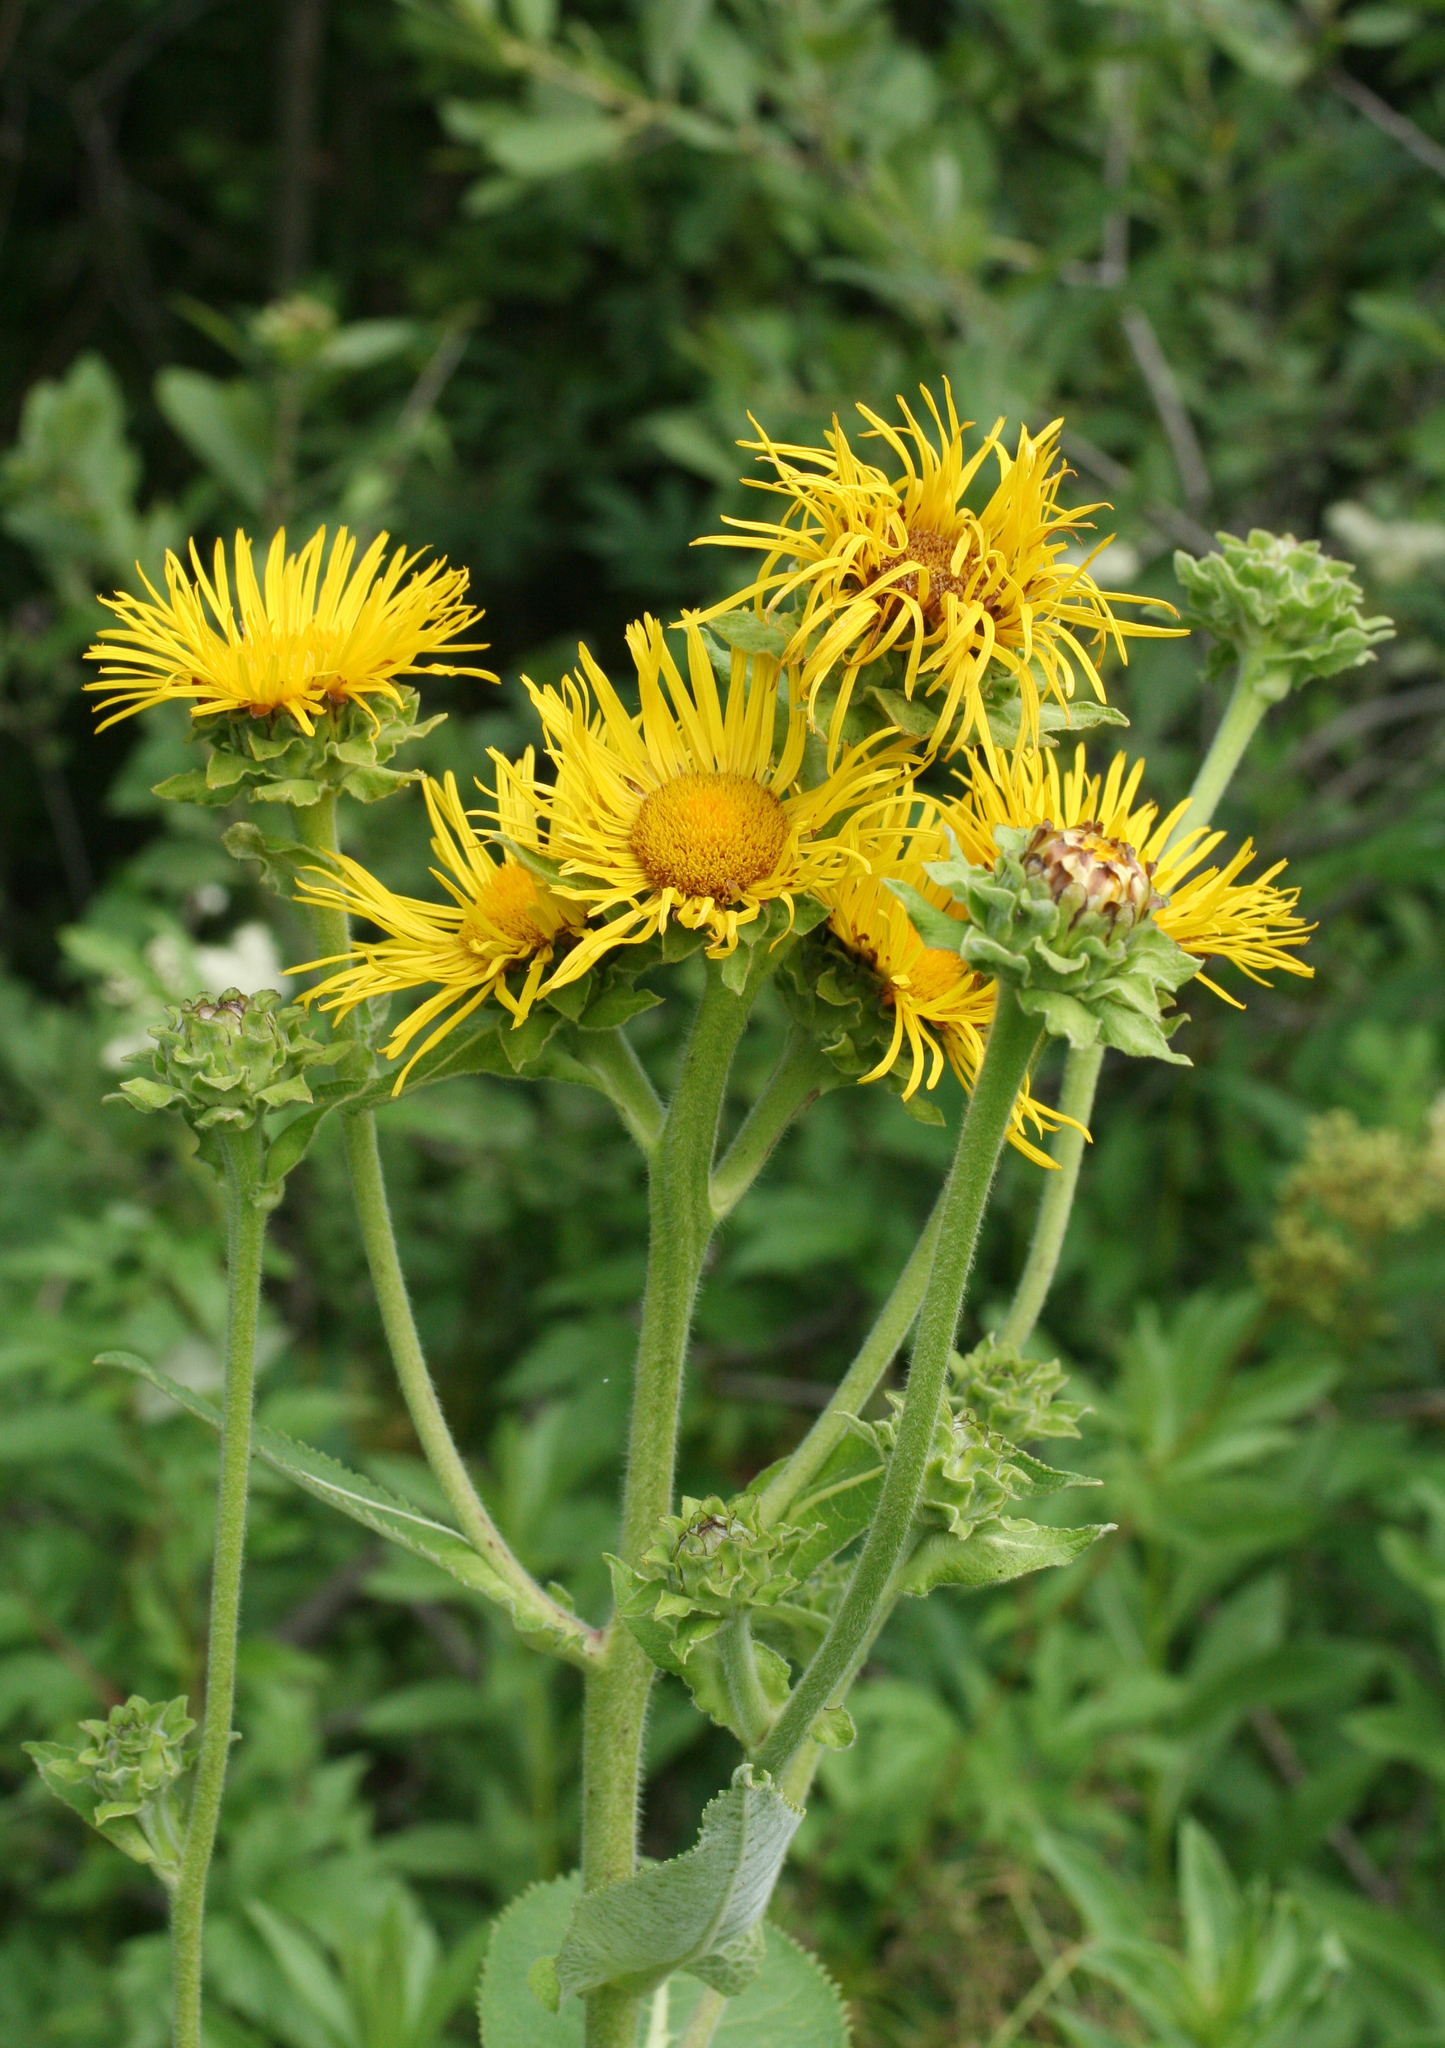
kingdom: Plantae
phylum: Tracheophyta
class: Magnoliopsida
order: Asterales
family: Asteraceae
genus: Inula
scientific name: Inula helenium
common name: Elecampane
